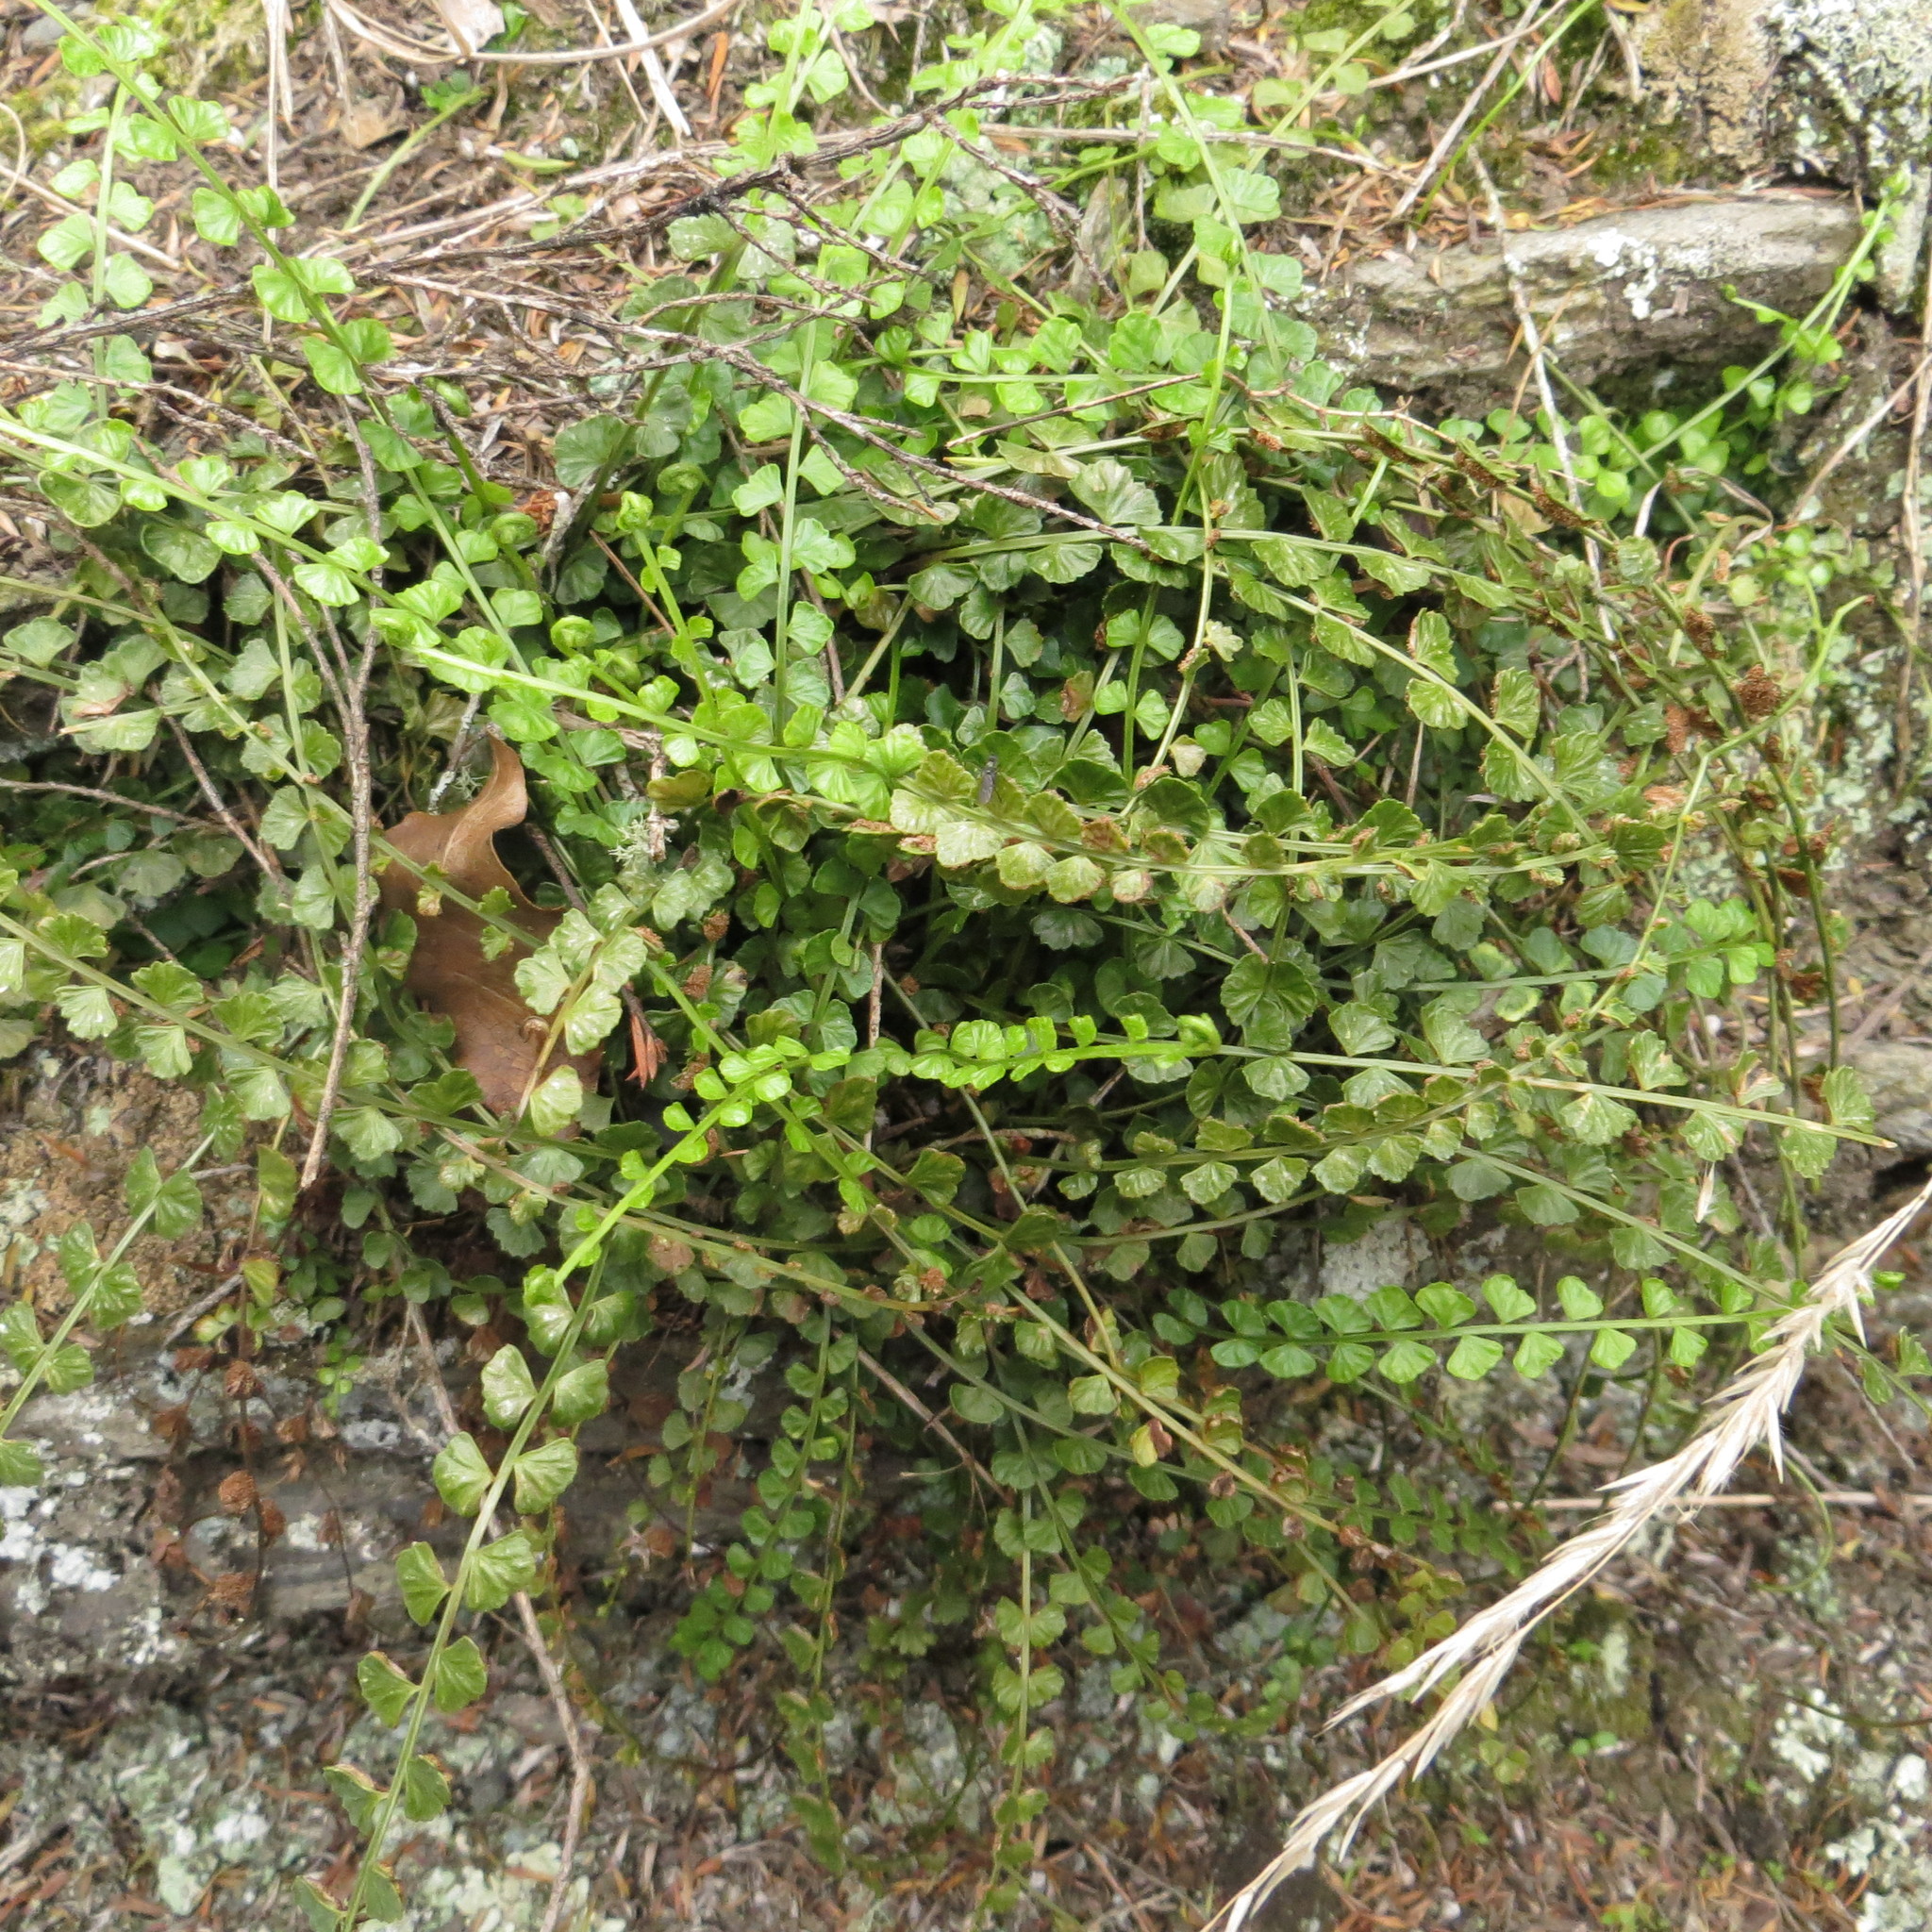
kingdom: Plantae
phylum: Tracheophyta
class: Polypodiopsida
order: Polypodiales
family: Aspleniaceae
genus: Asplenium
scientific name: Asplenium flabellifolium
